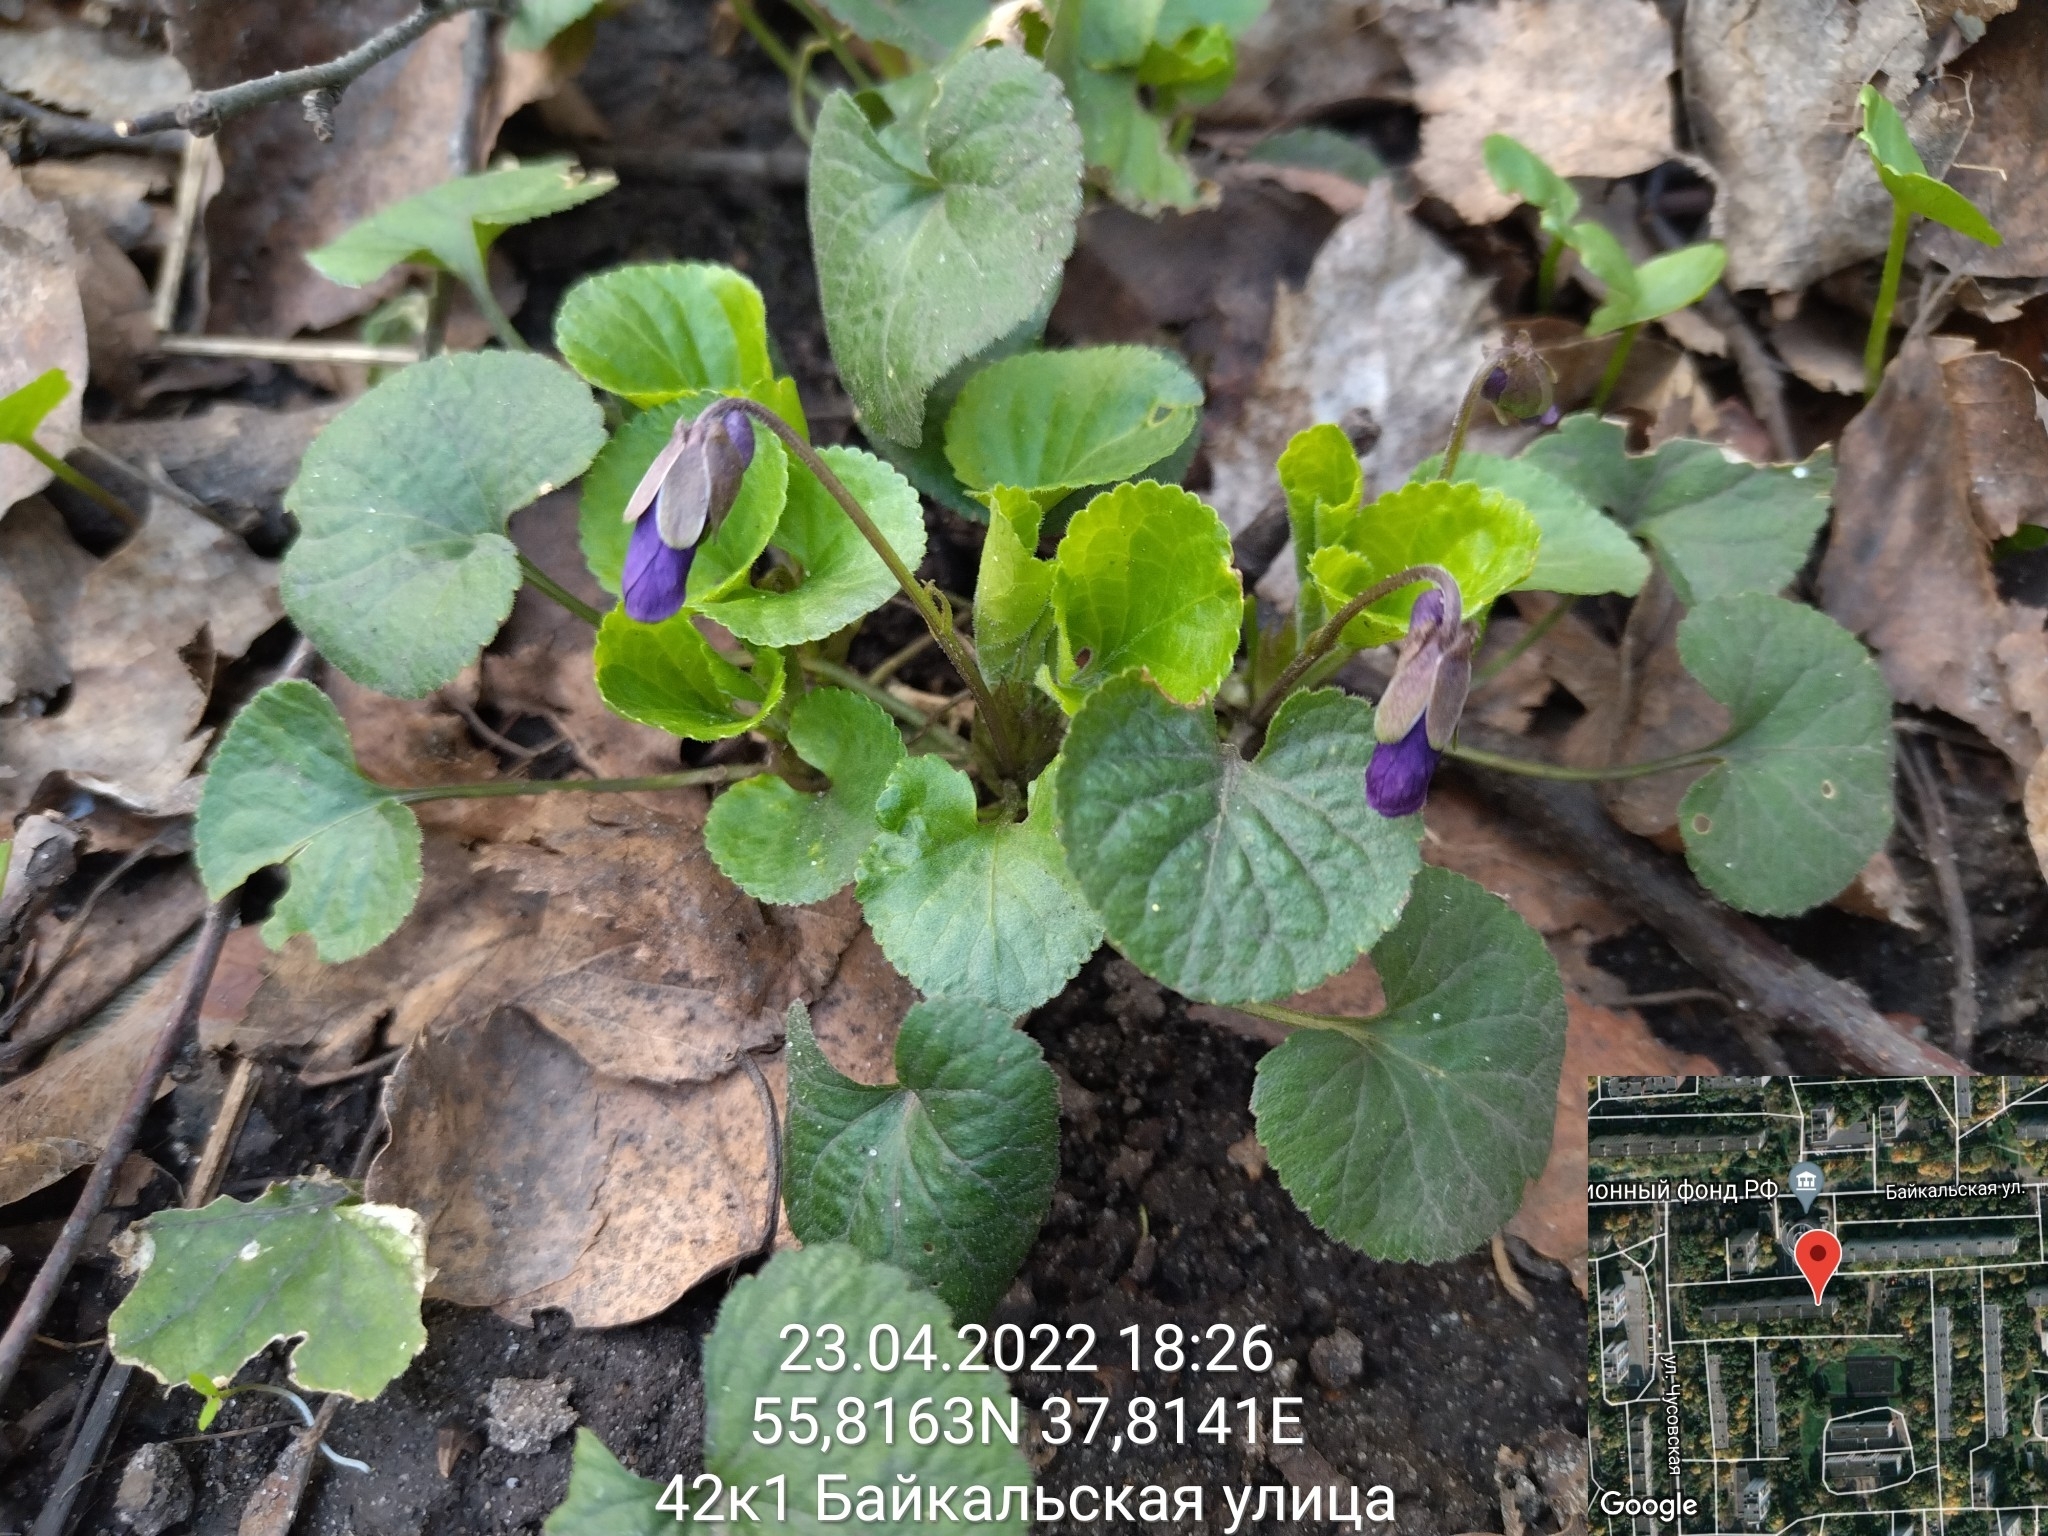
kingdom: Plantae
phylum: Tracheophyta
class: Magnoliopsida
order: Malpighiales
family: Violaceae
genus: Viola
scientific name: Viola odorata
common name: Sweet violet
